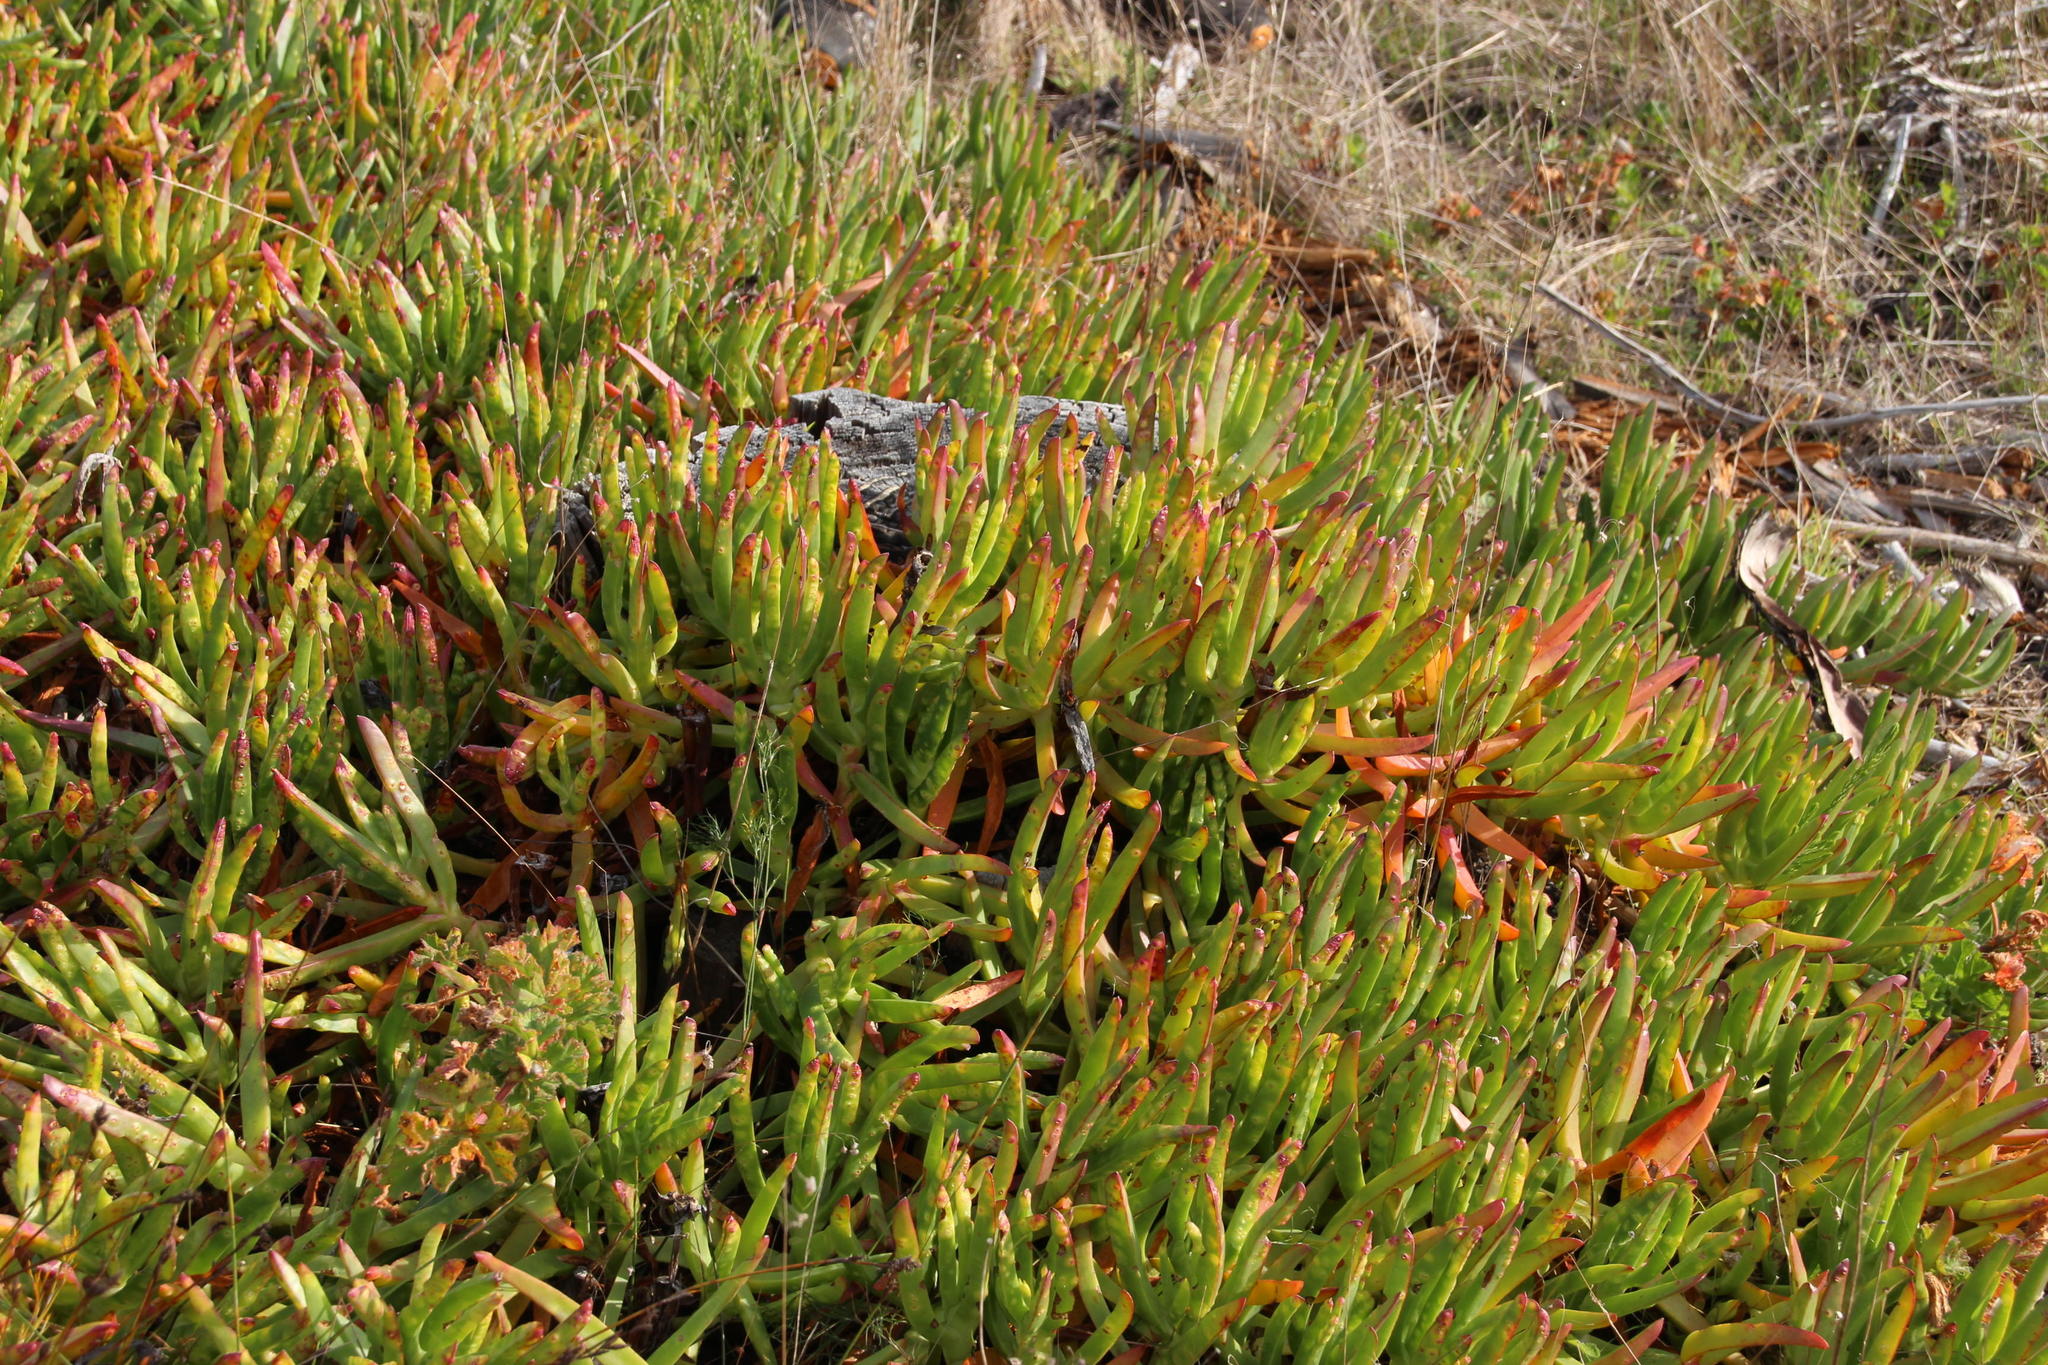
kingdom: Plantae
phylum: Tracheophyta
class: Magnoliopsida
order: Caryophyllales
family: Aizoaceae
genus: Carpobrotus
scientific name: Carpobrotus edulis
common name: Hottentot-fig
